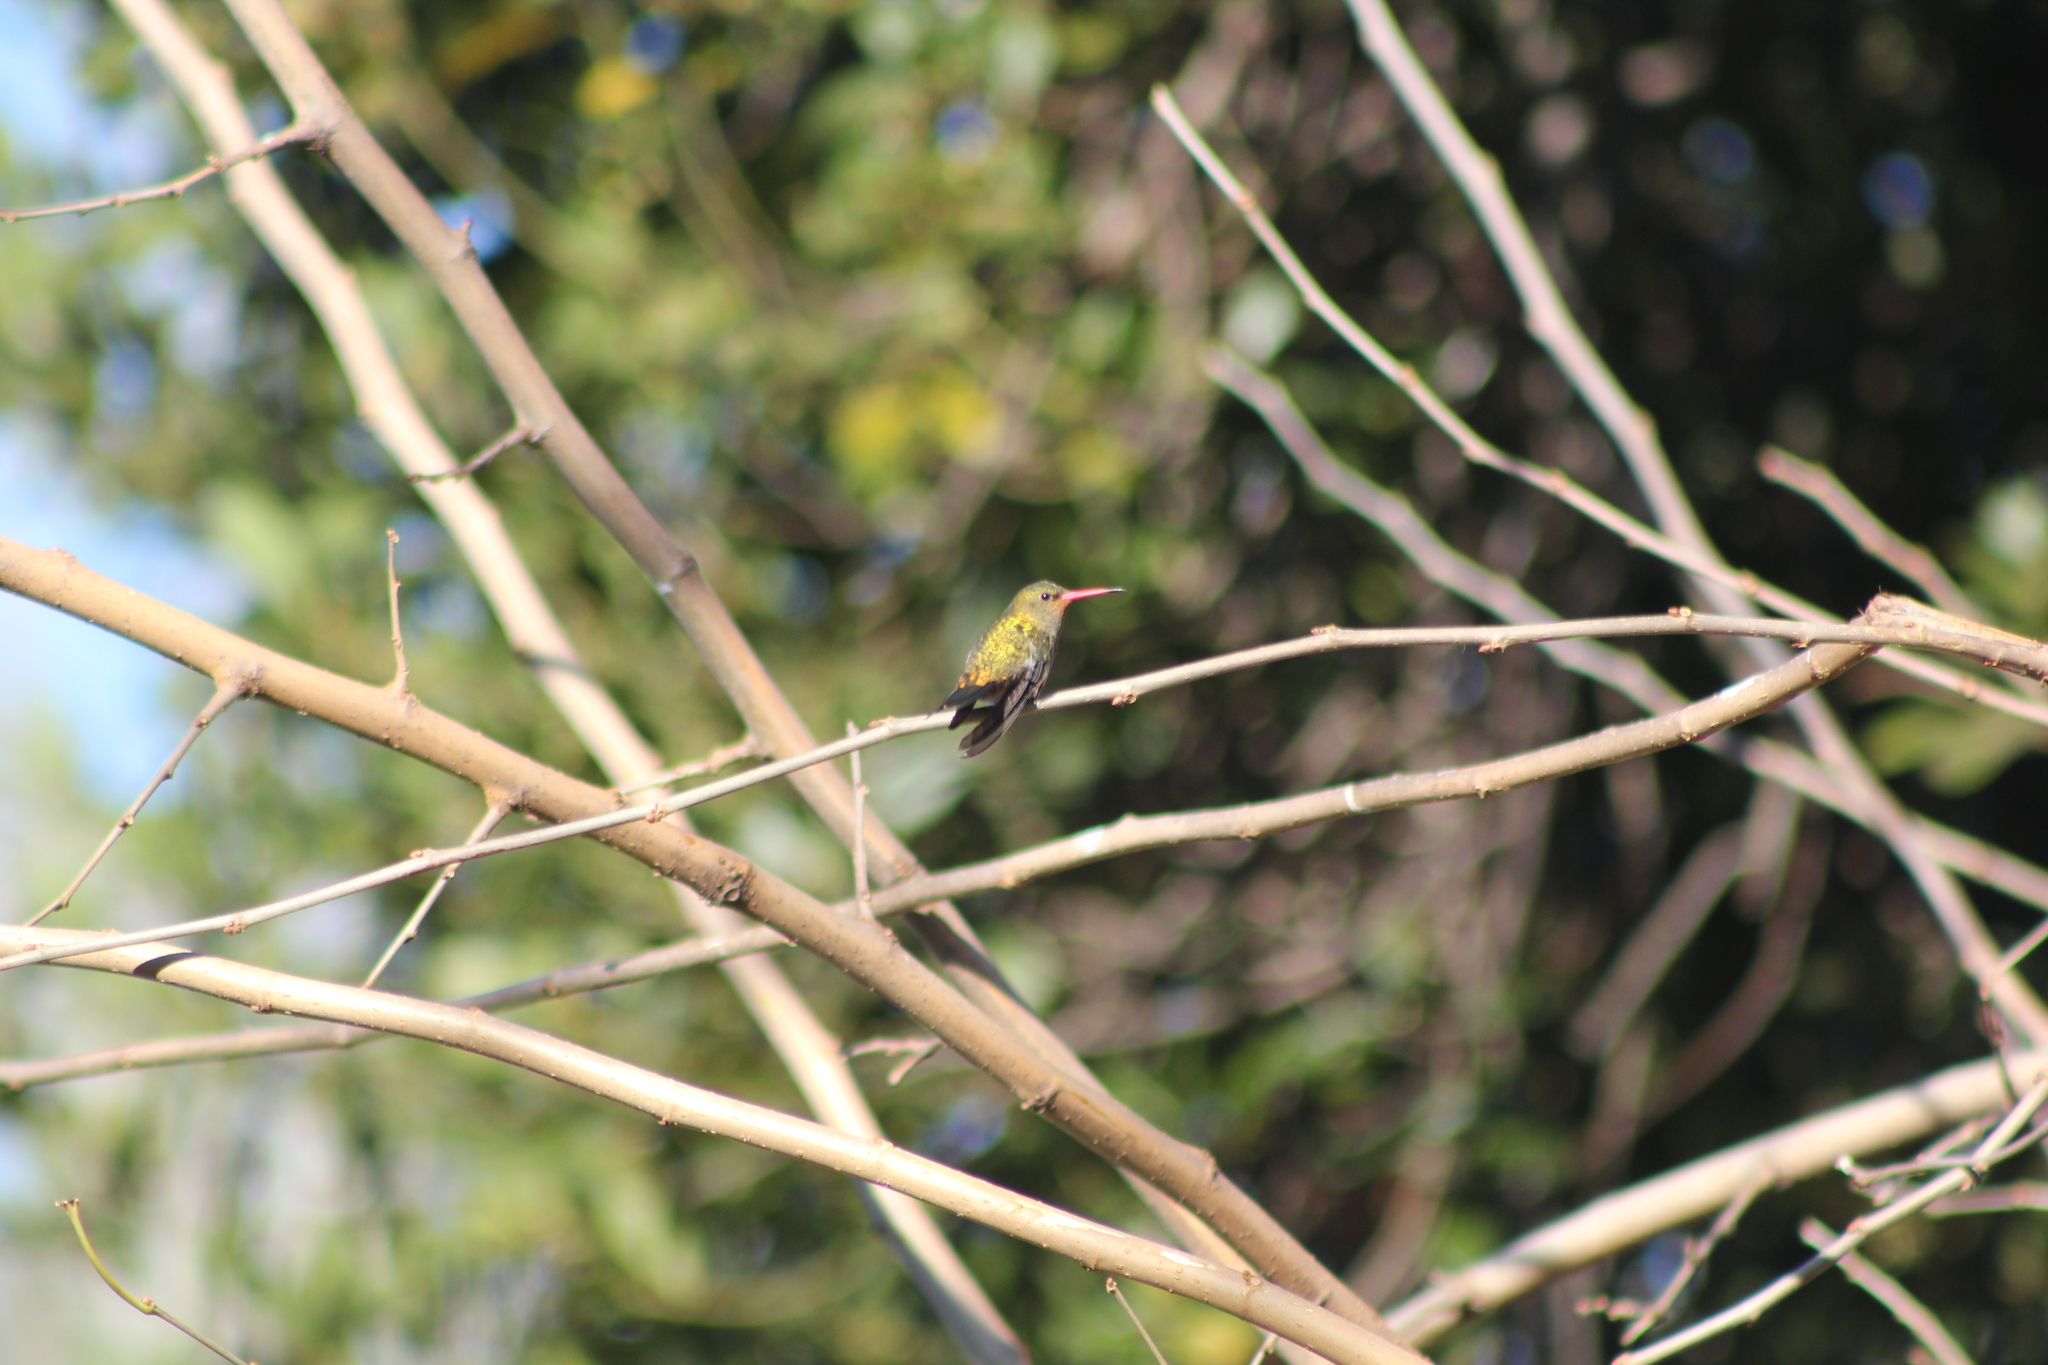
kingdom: Animalia
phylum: Chordata
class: Aves
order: Apodiformes
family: Trochilidae
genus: Hylocharis
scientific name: Hylocharis chrysura
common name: Gilded sapphire
